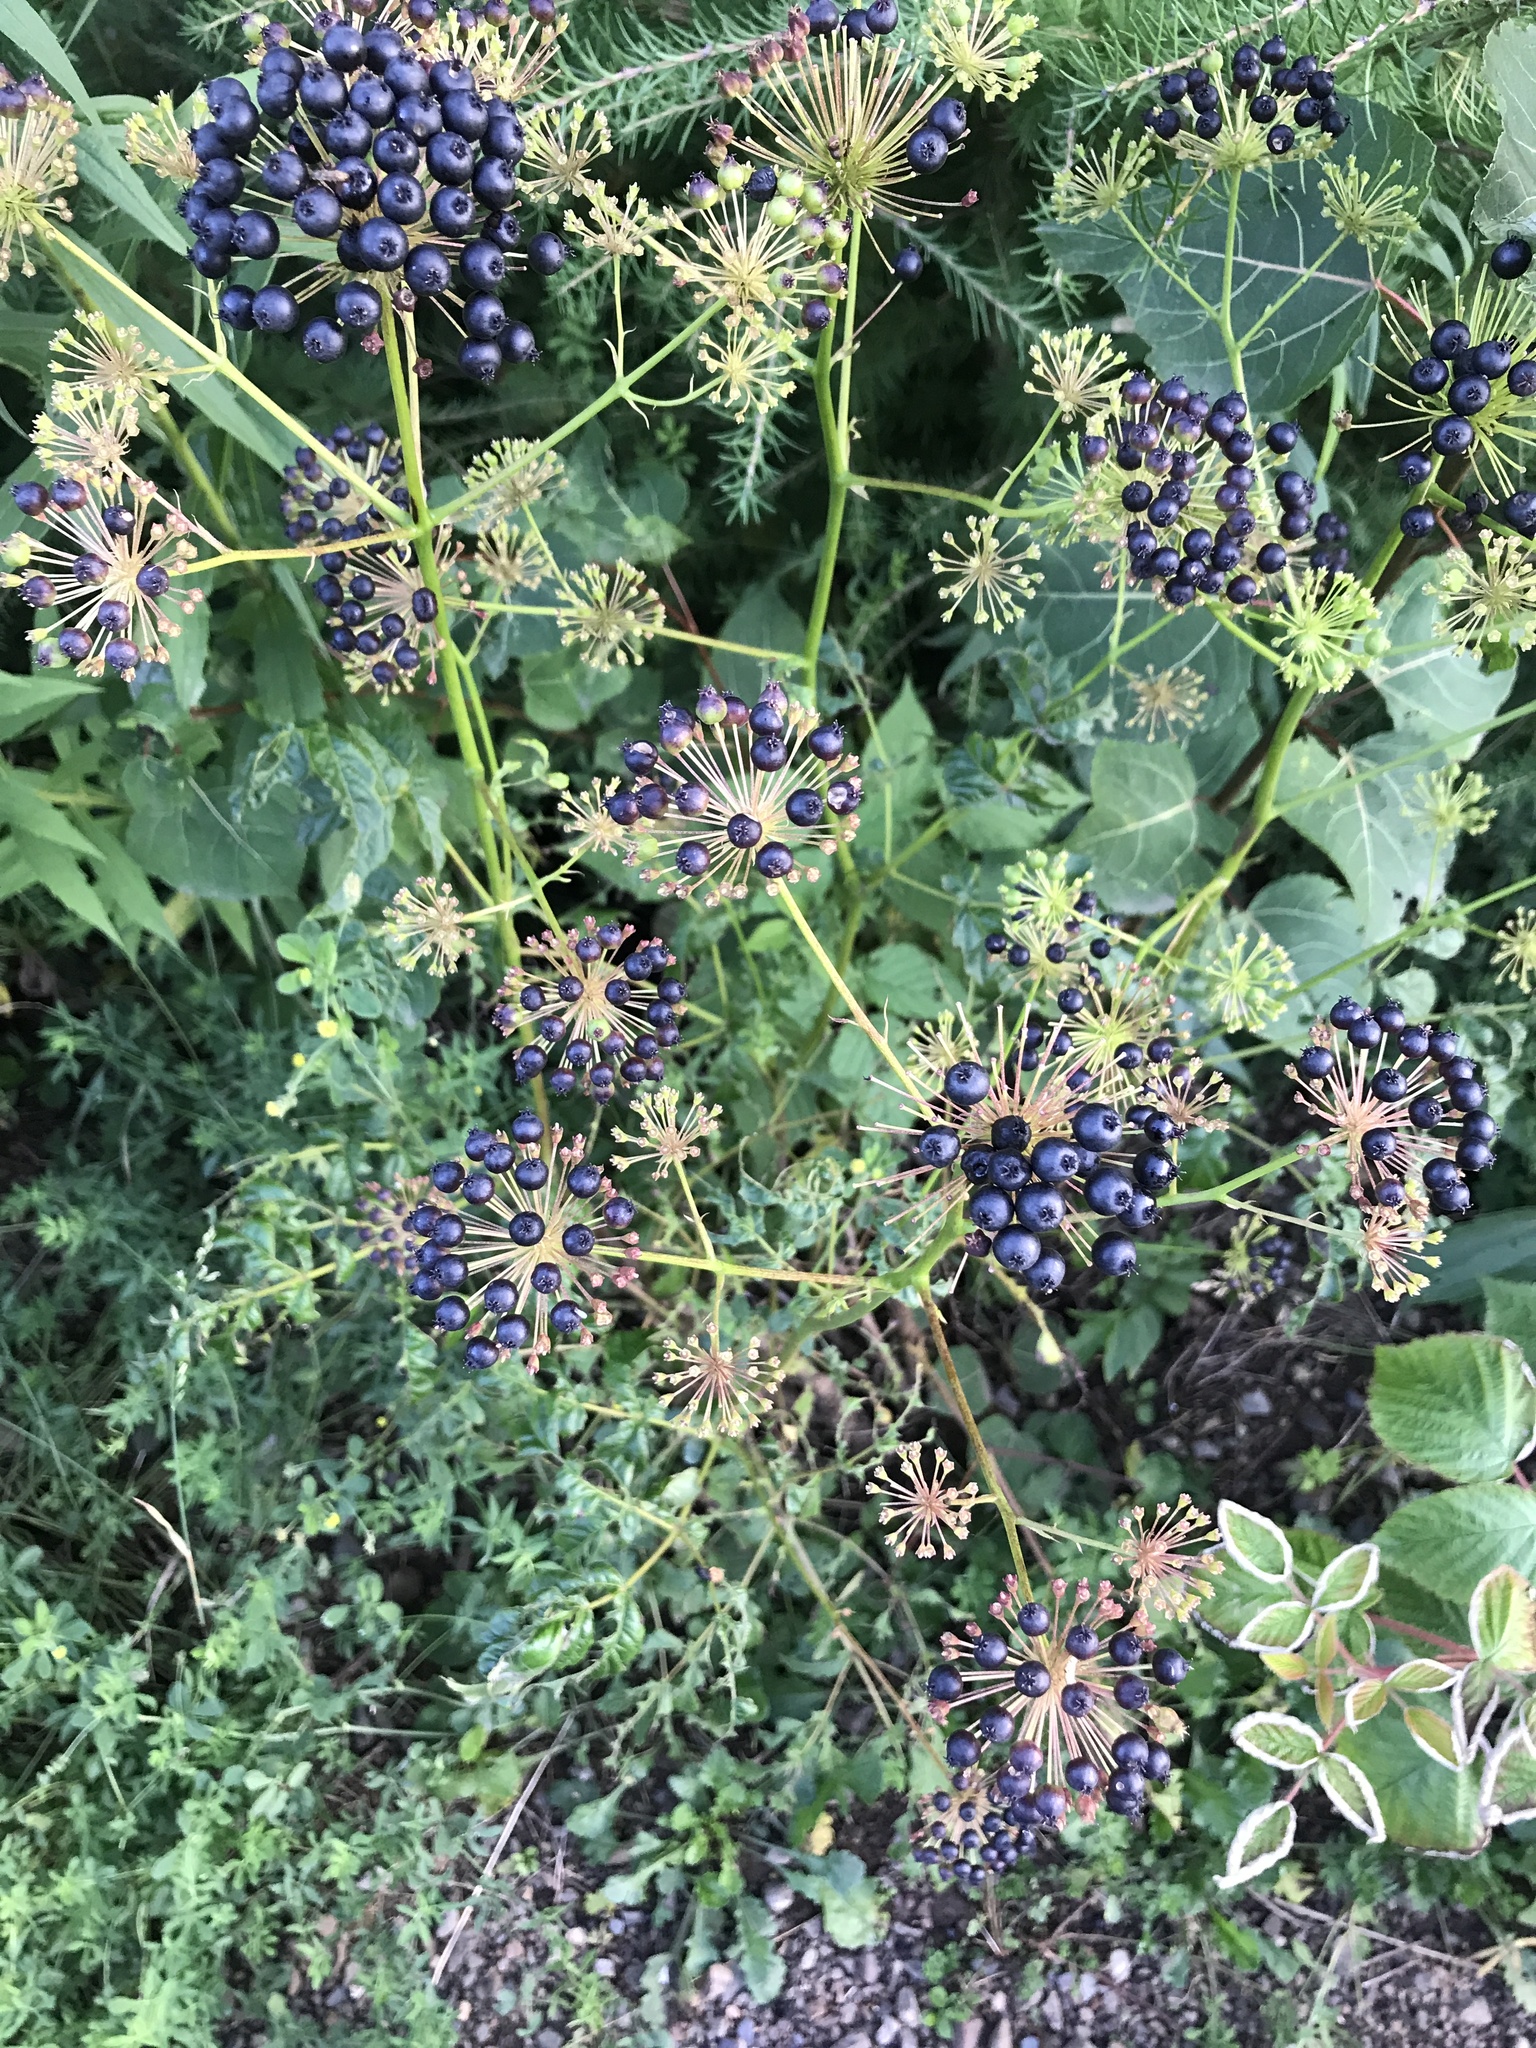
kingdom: Plantae
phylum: Tracheophyta
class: Magnoliopsida
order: Apiales
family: Araliaceae
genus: Aralia
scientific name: Aralia hispida
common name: Bristly sarsaparilla
